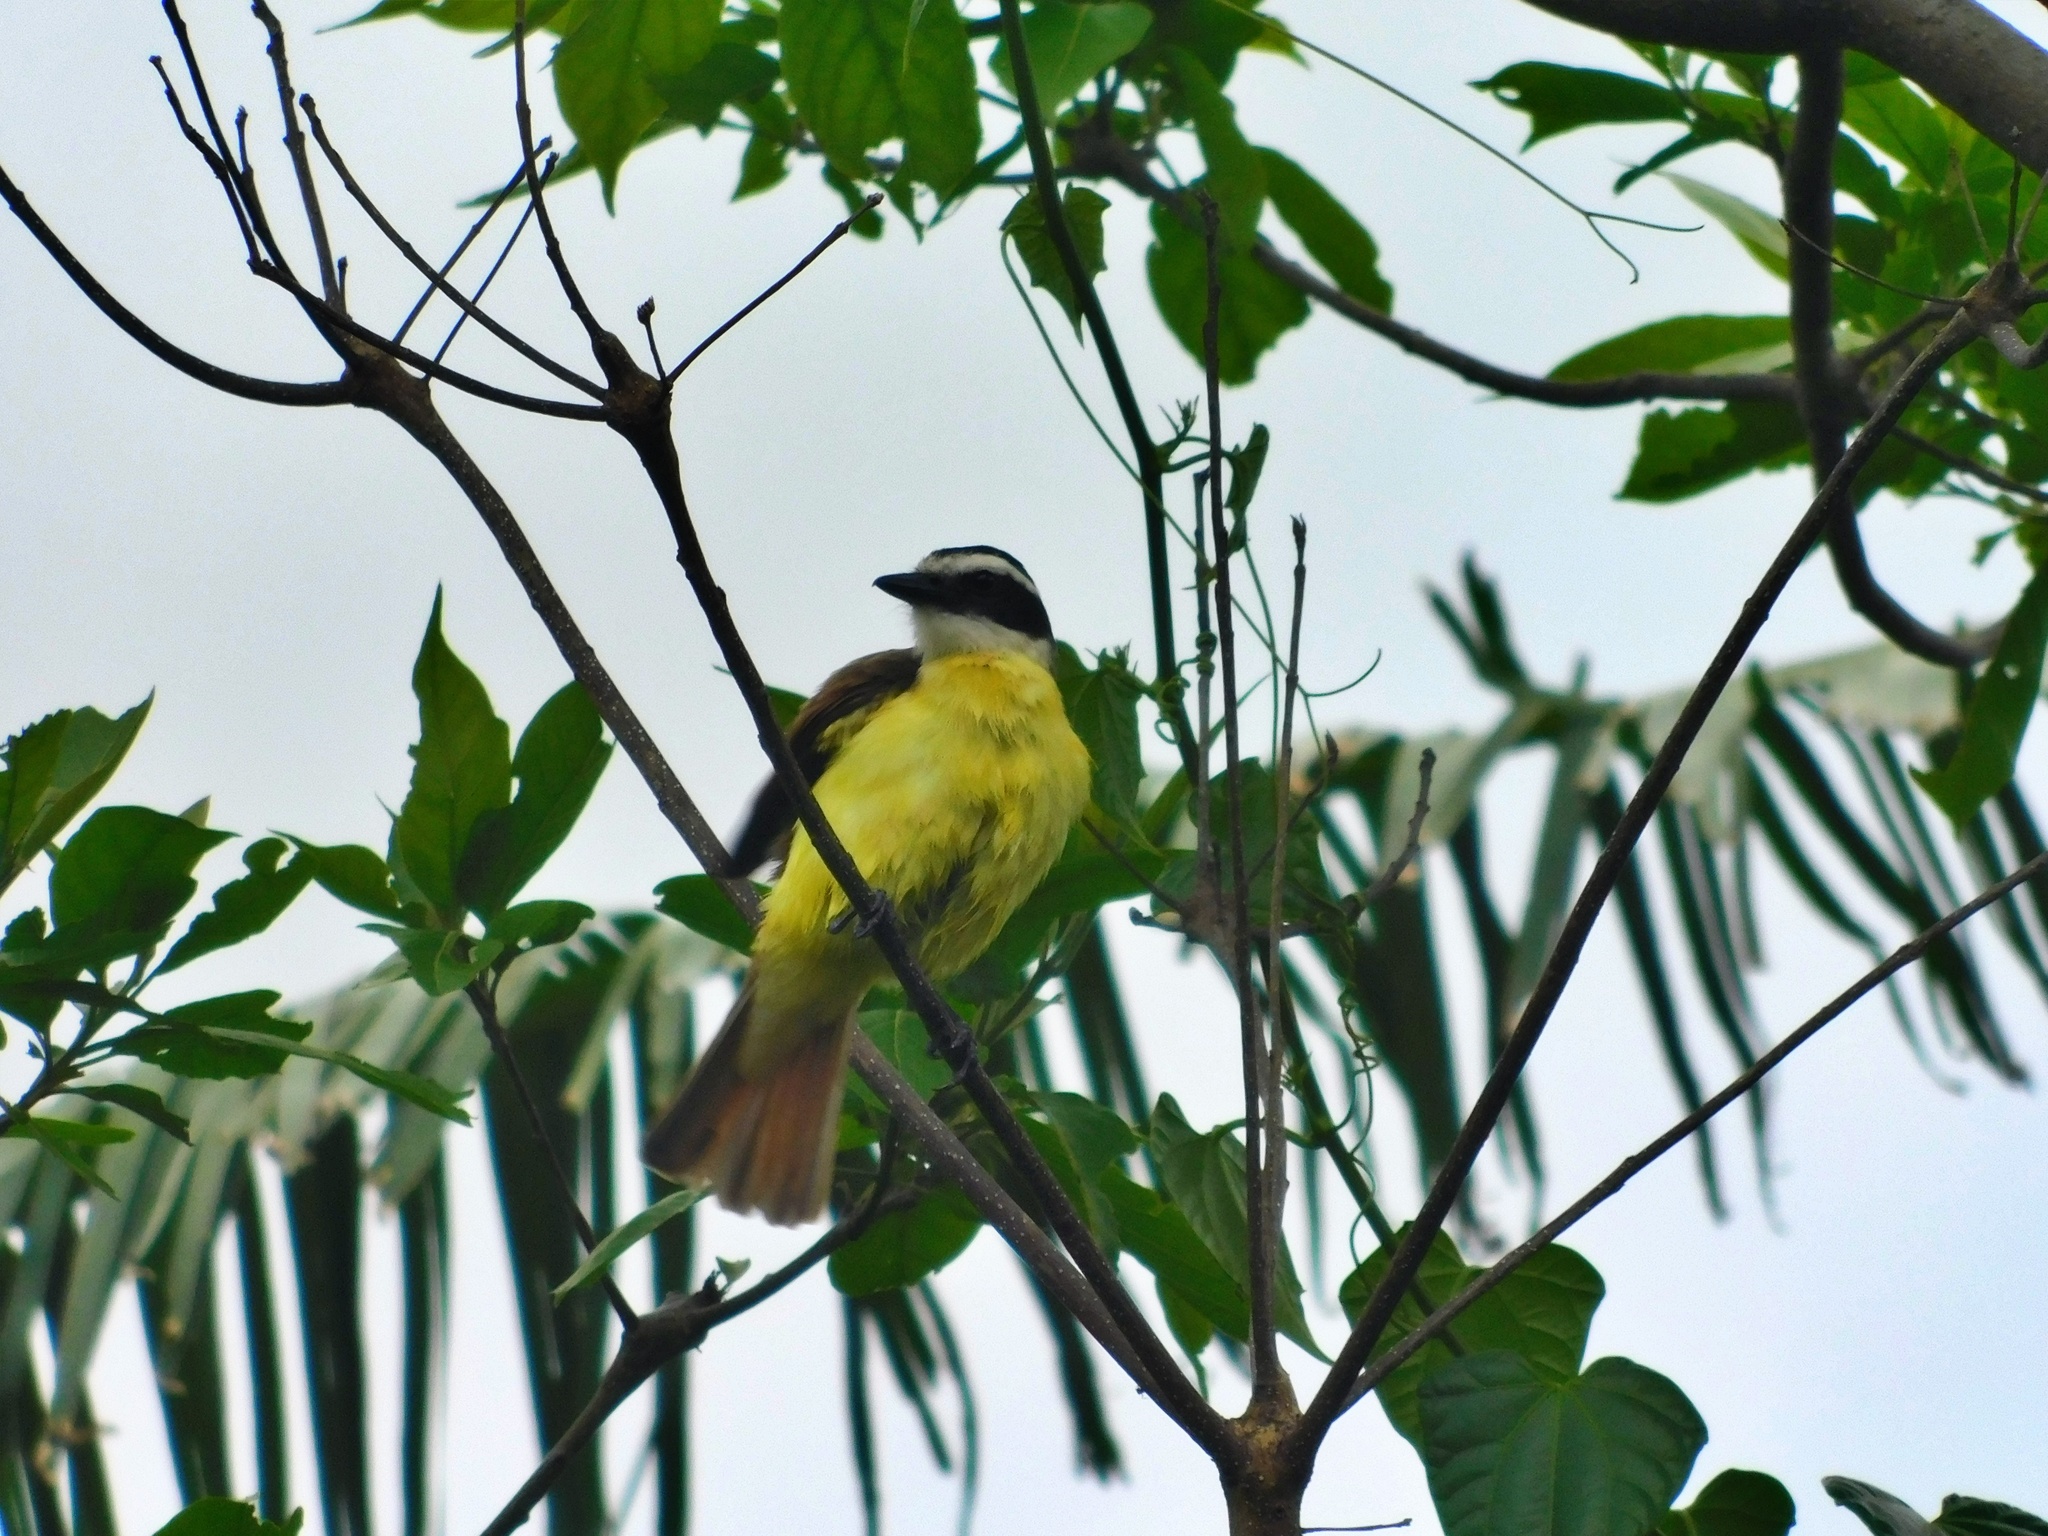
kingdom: Animalia
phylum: Chordata
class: Aves
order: Passeriformes
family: Tyrannidae
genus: Pitangus
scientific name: Pitangus sulphuratus
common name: Great kiskadee
